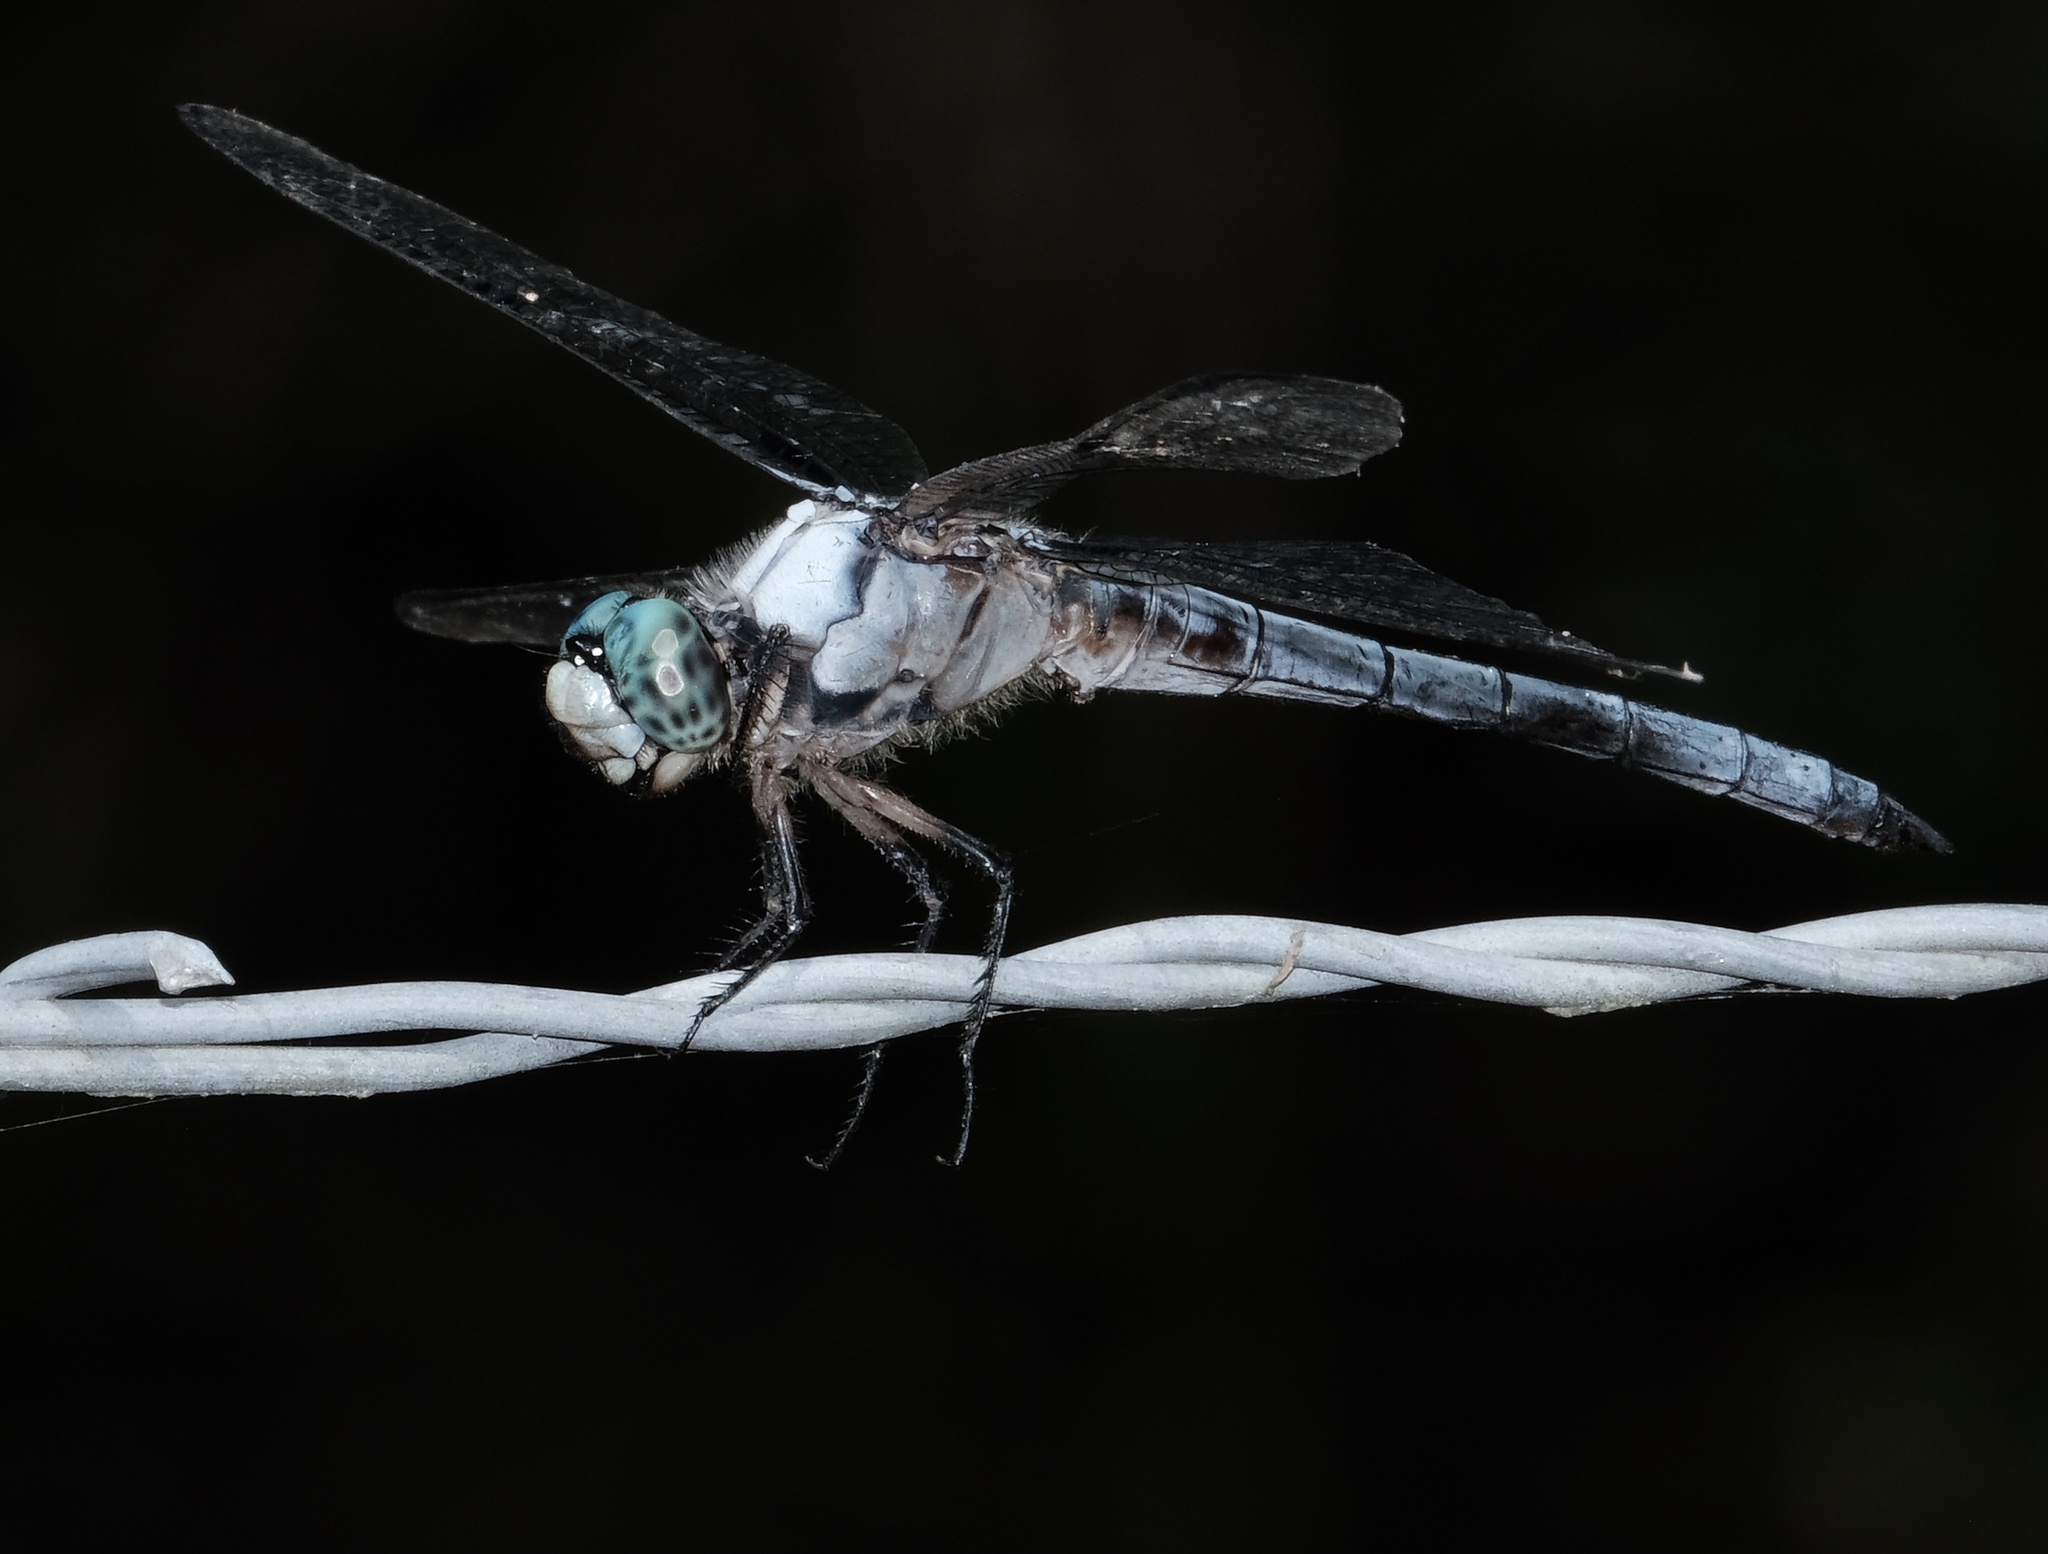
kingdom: Animalia
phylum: Arthropoda
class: Insecta
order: Odonata
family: Libellulidae
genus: Libellula
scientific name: Libellula vibrans
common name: Great blue skimmer
